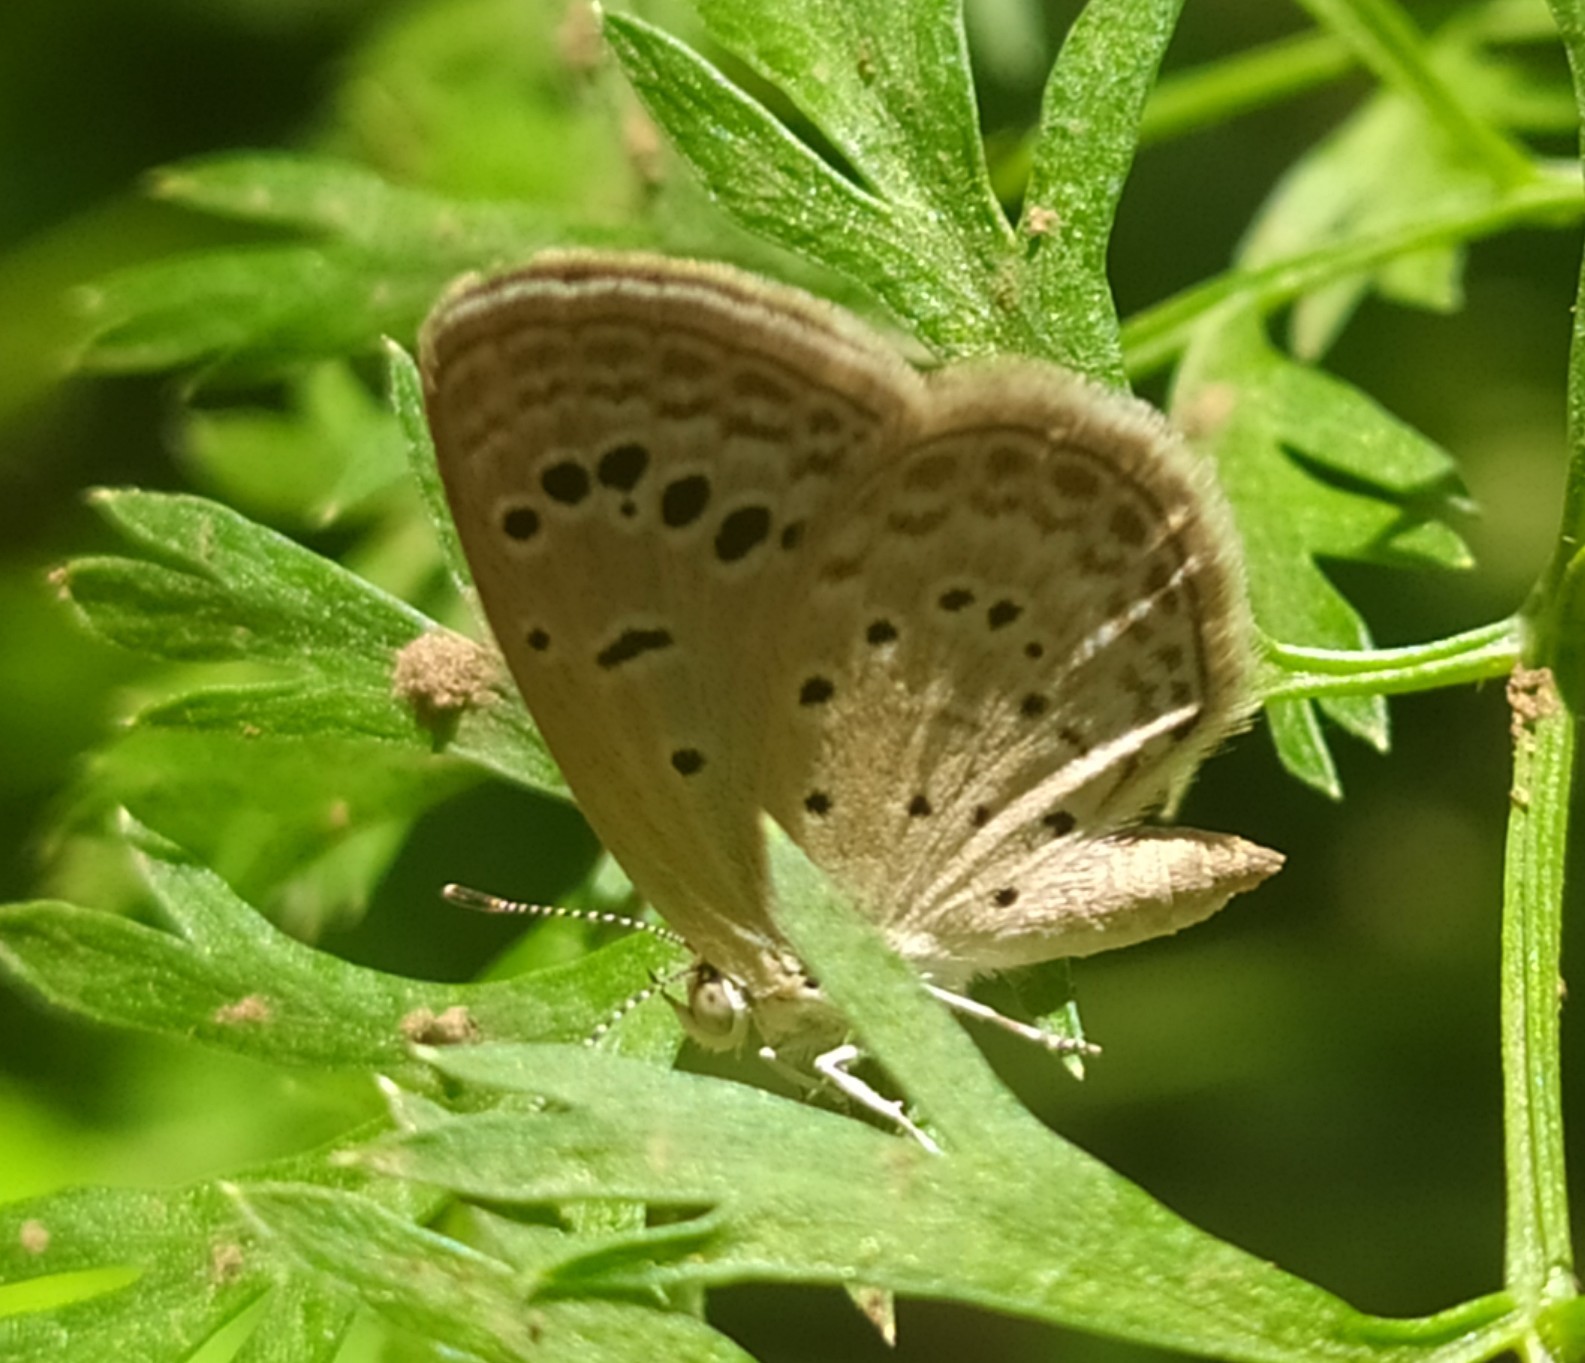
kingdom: Animalia
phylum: Arthropoda
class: Insecta
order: Lepidoptera
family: Lycaenidae
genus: Zizeeria
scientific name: Zizeeria karsandra
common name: Dark grass blue
